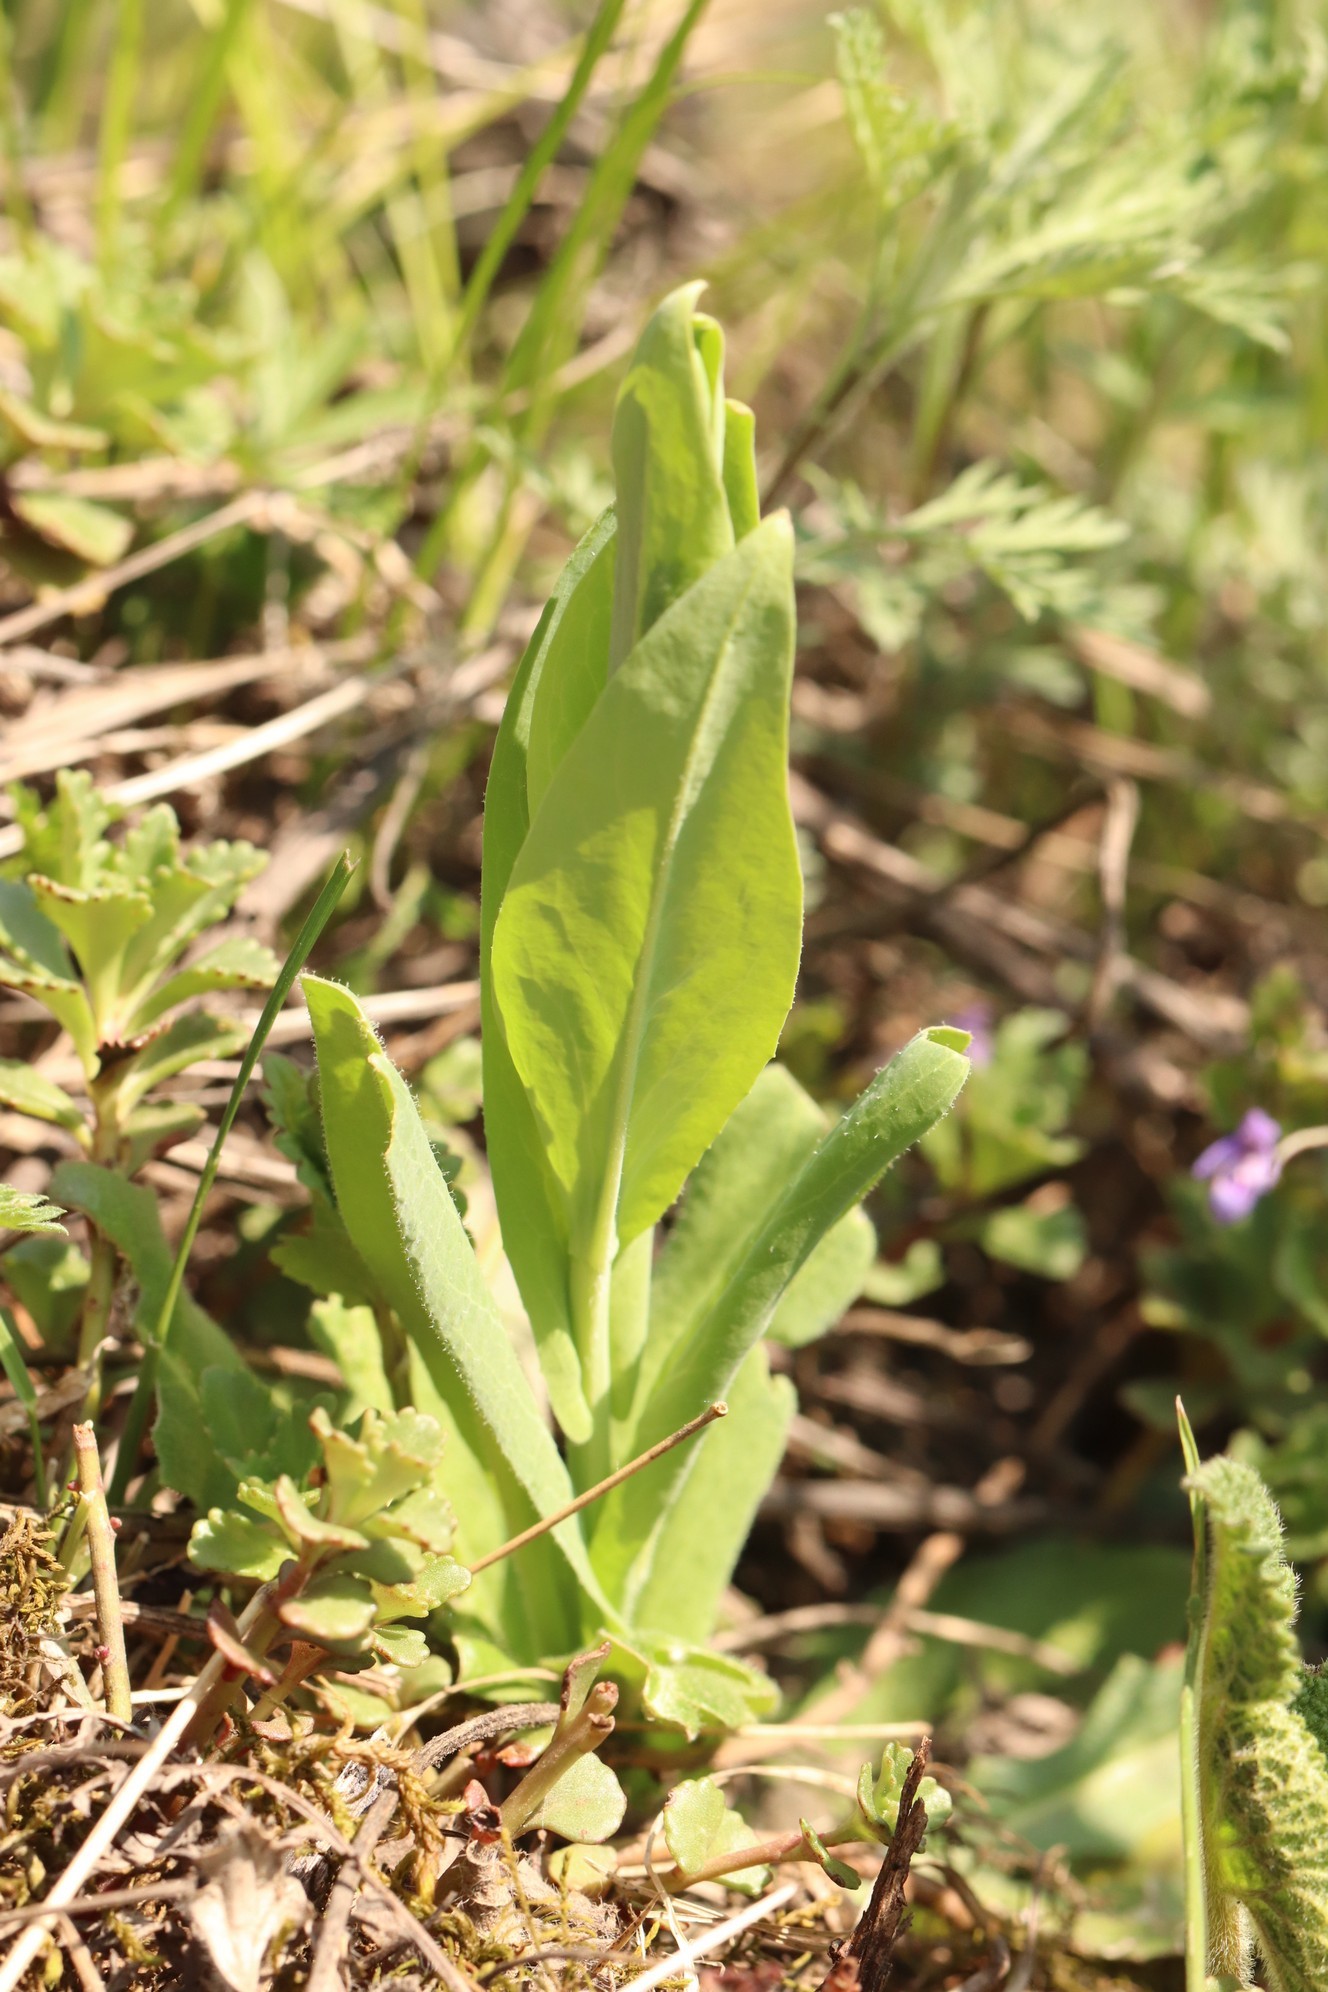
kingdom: Plantae
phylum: Tracheophyta
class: Magnoliopsida
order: Brassicales
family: Brassicaceae
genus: Turritis
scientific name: Turritis glabra
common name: Tower rockcress
